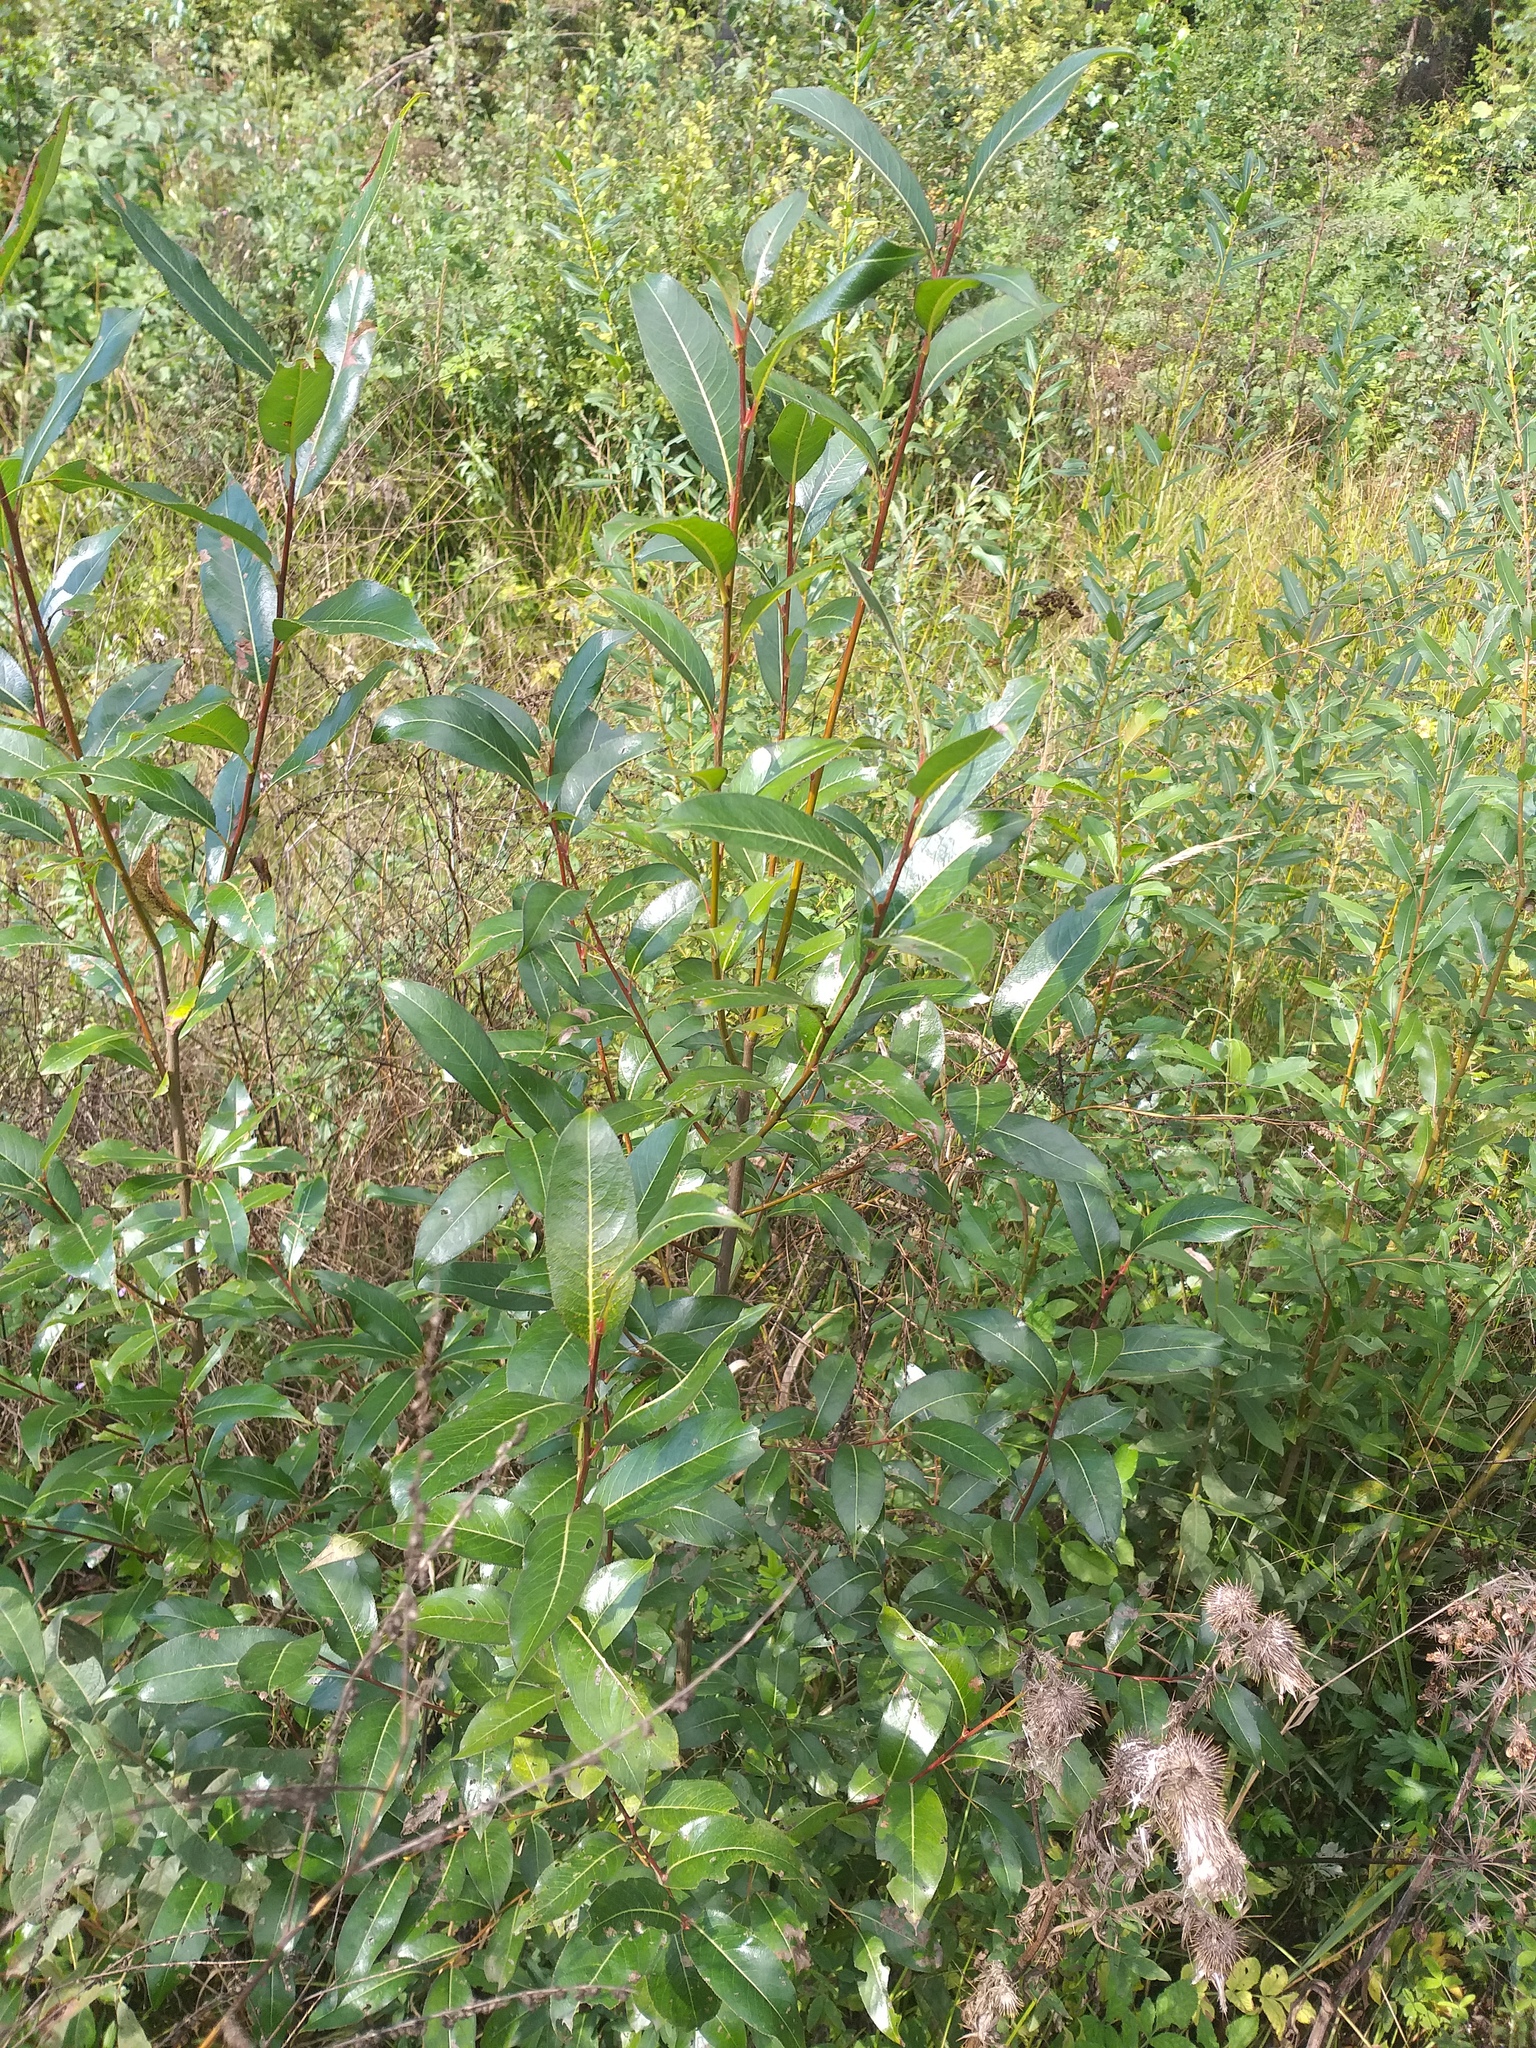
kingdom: Plantae
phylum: Tracheophyta
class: Magnoliopsida
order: Malpighiales
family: Salicaceae
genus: Salix
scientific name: Salix pentandra
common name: Bay willow
